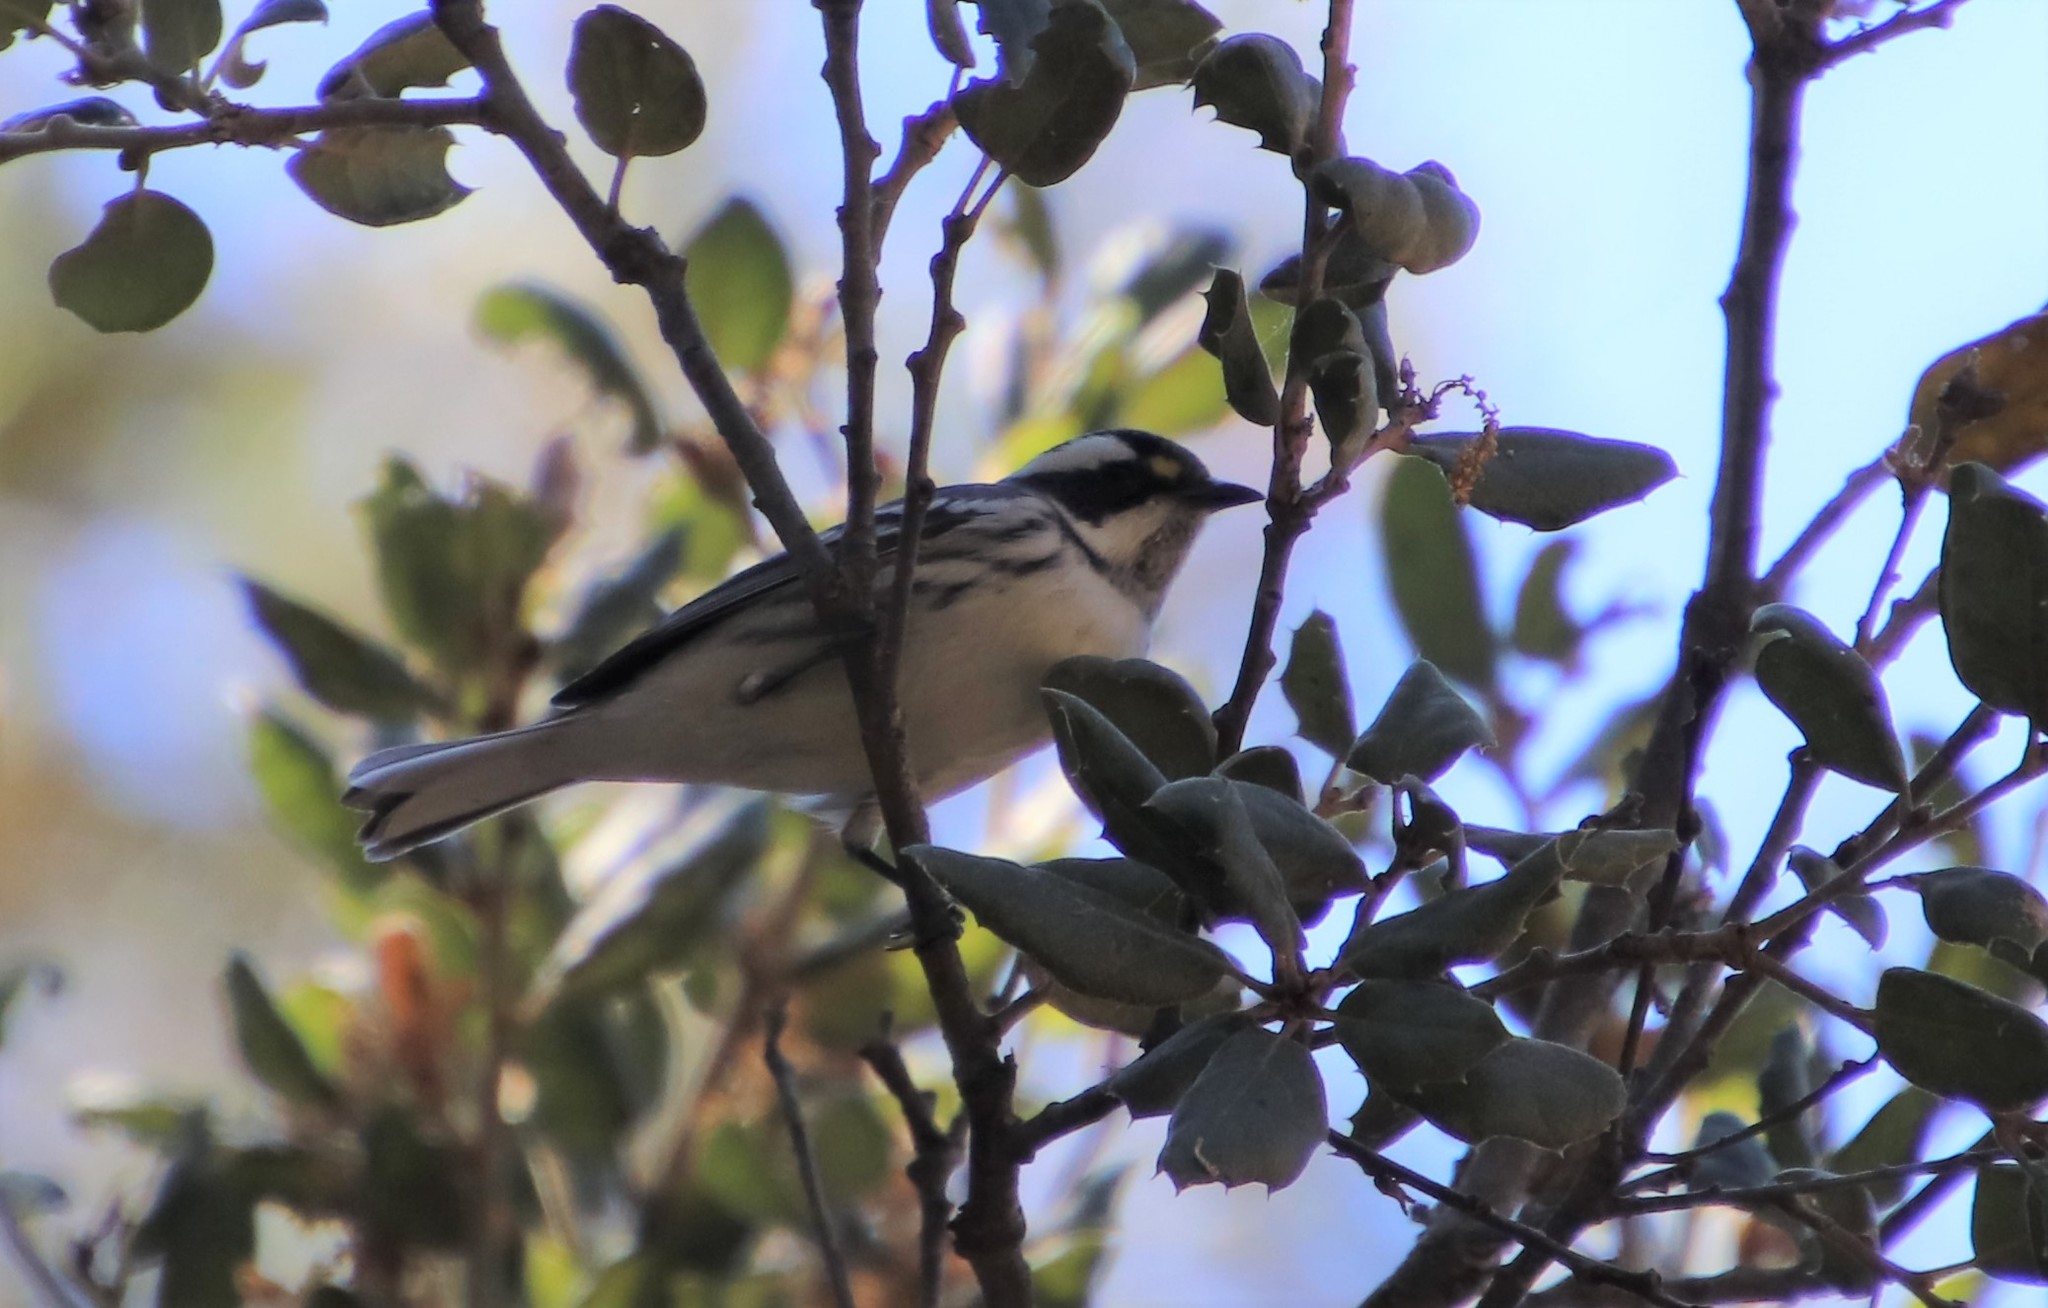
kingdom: Animalia
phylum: Chordata
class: Aves
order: Passeriformes
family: Parulidae
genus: Setophaga
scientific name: Setophaga nigrescens
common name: Black-throated gray warbler
